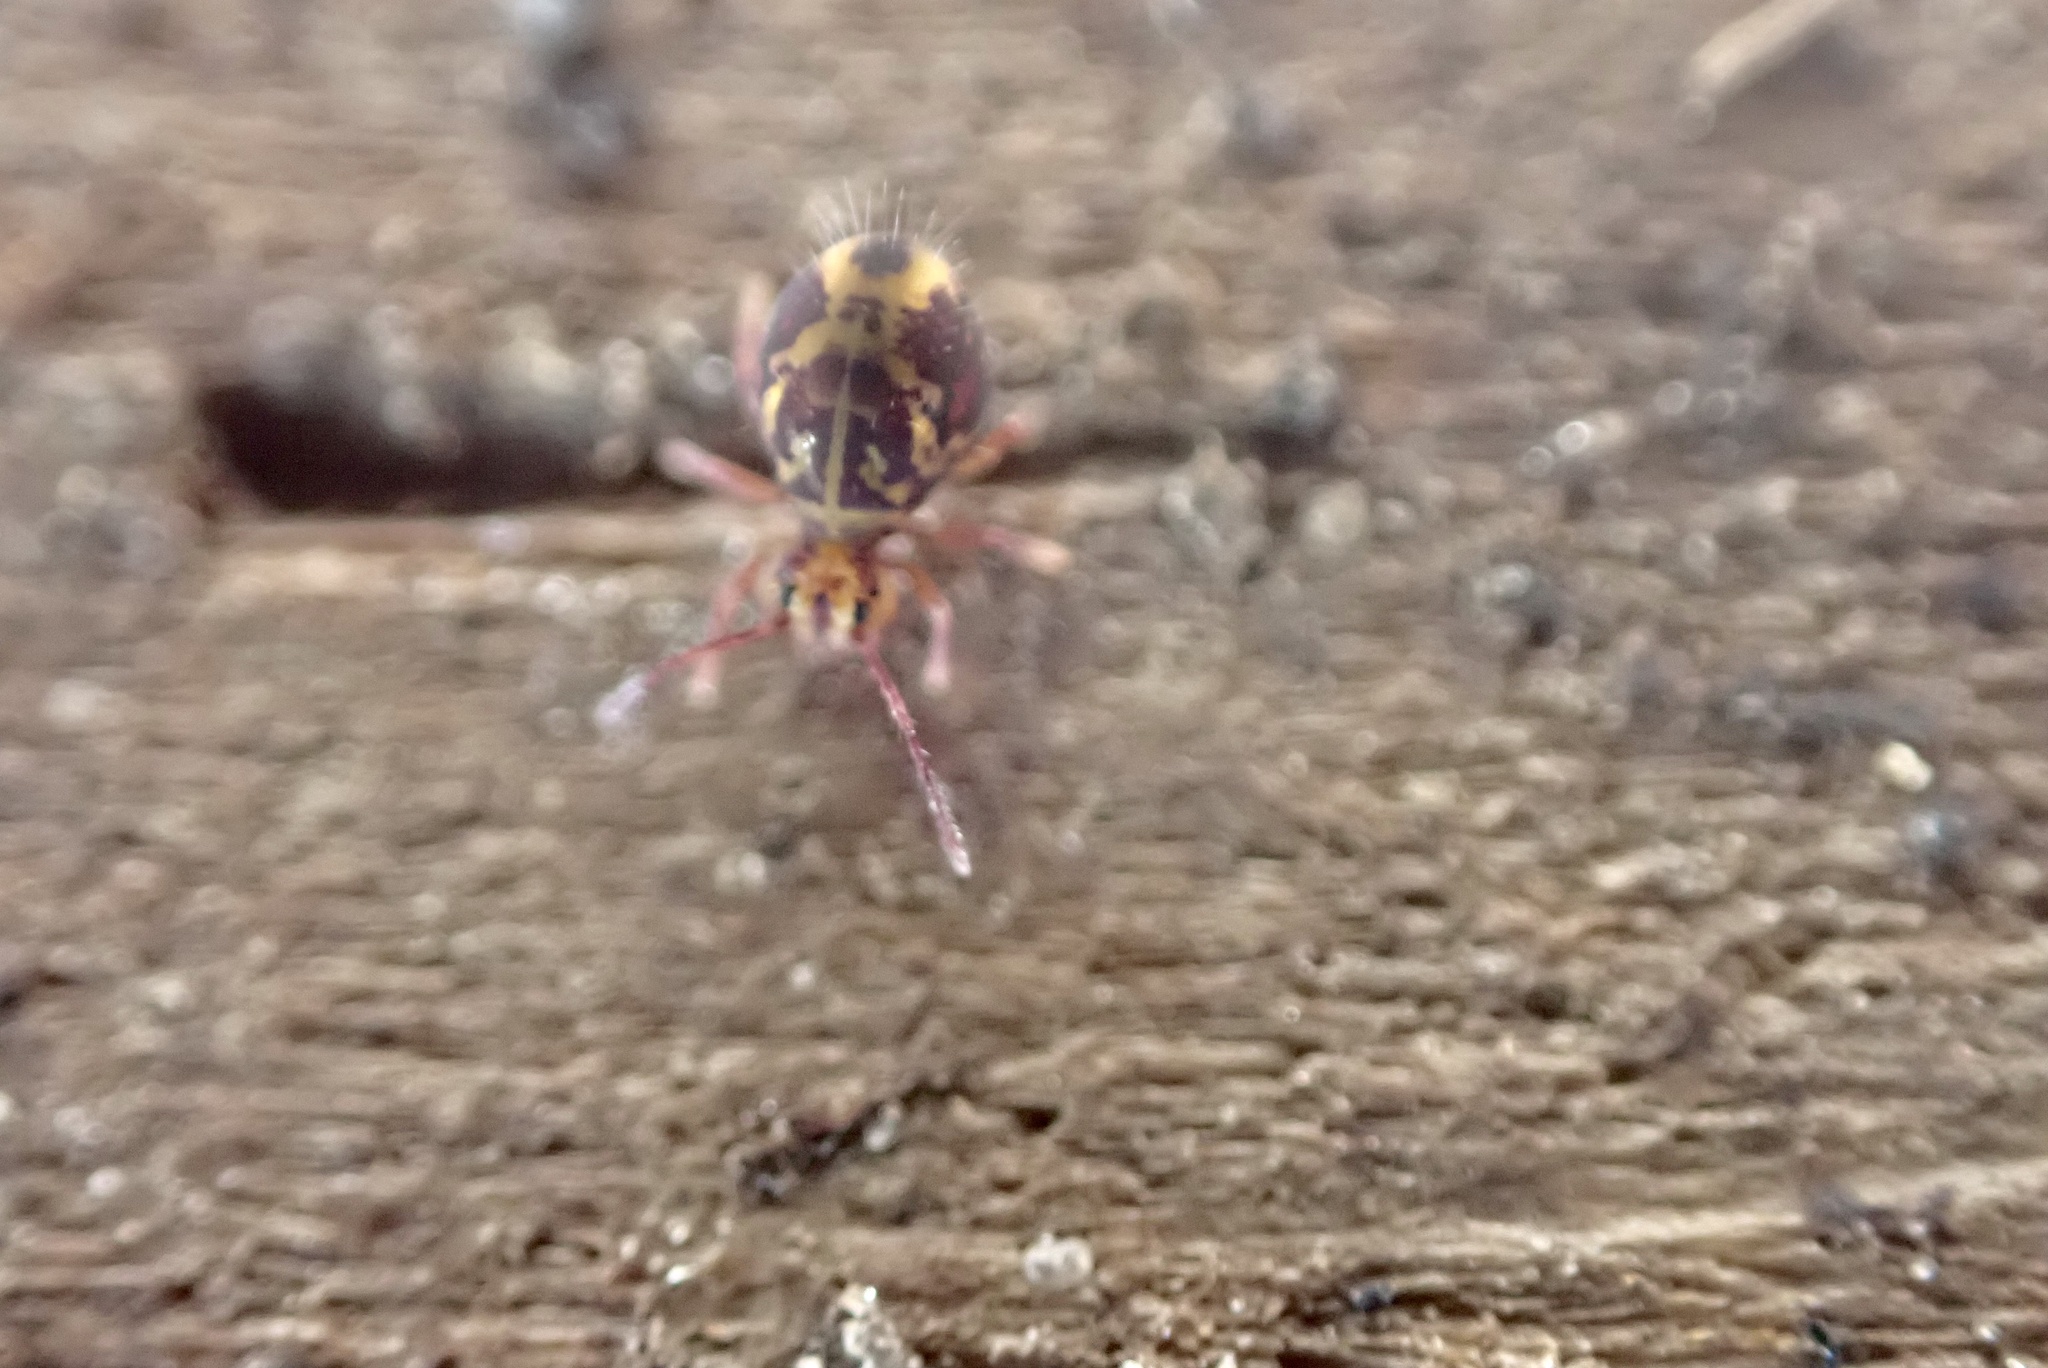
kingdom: Animalia
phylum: Arthropoda
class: Collembola
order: Symphypleona
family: Dicyrtomidae
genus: Dicyrtomina
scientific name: Dicyrtomina minuta
